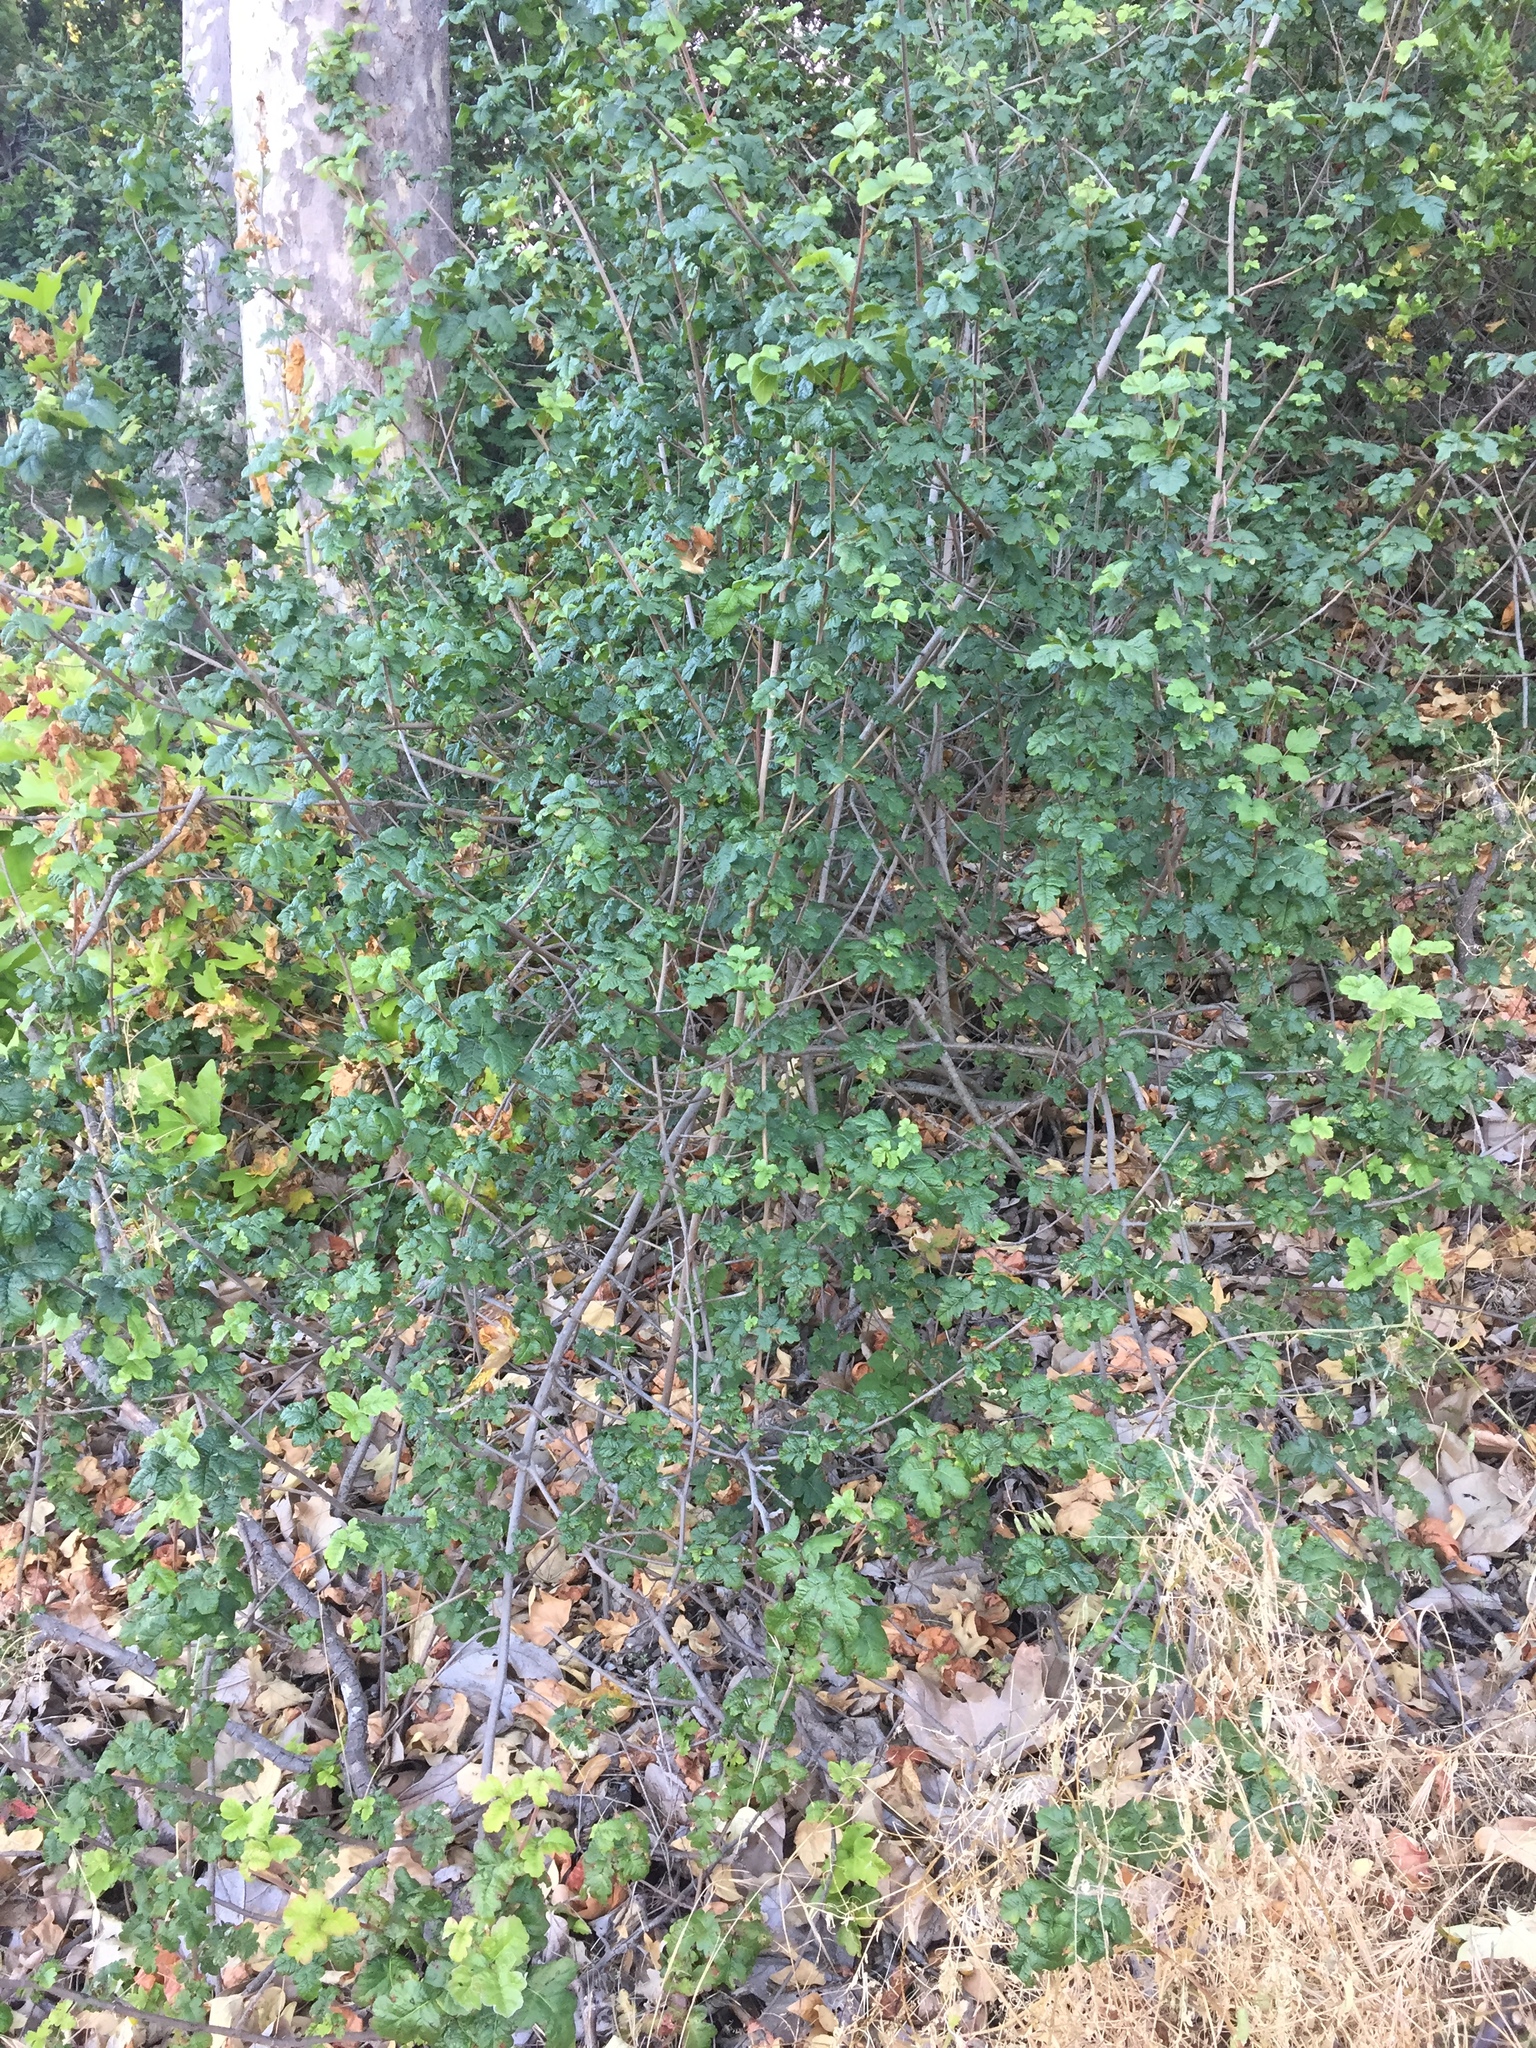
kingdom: Plantae
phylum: Tracheophyta
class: Magnoliopsida
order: Sapindales
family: Anacardiaceae
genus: Toxicodendron
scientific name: Toxicodendron diversilobum
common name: Pacific poison-oak
